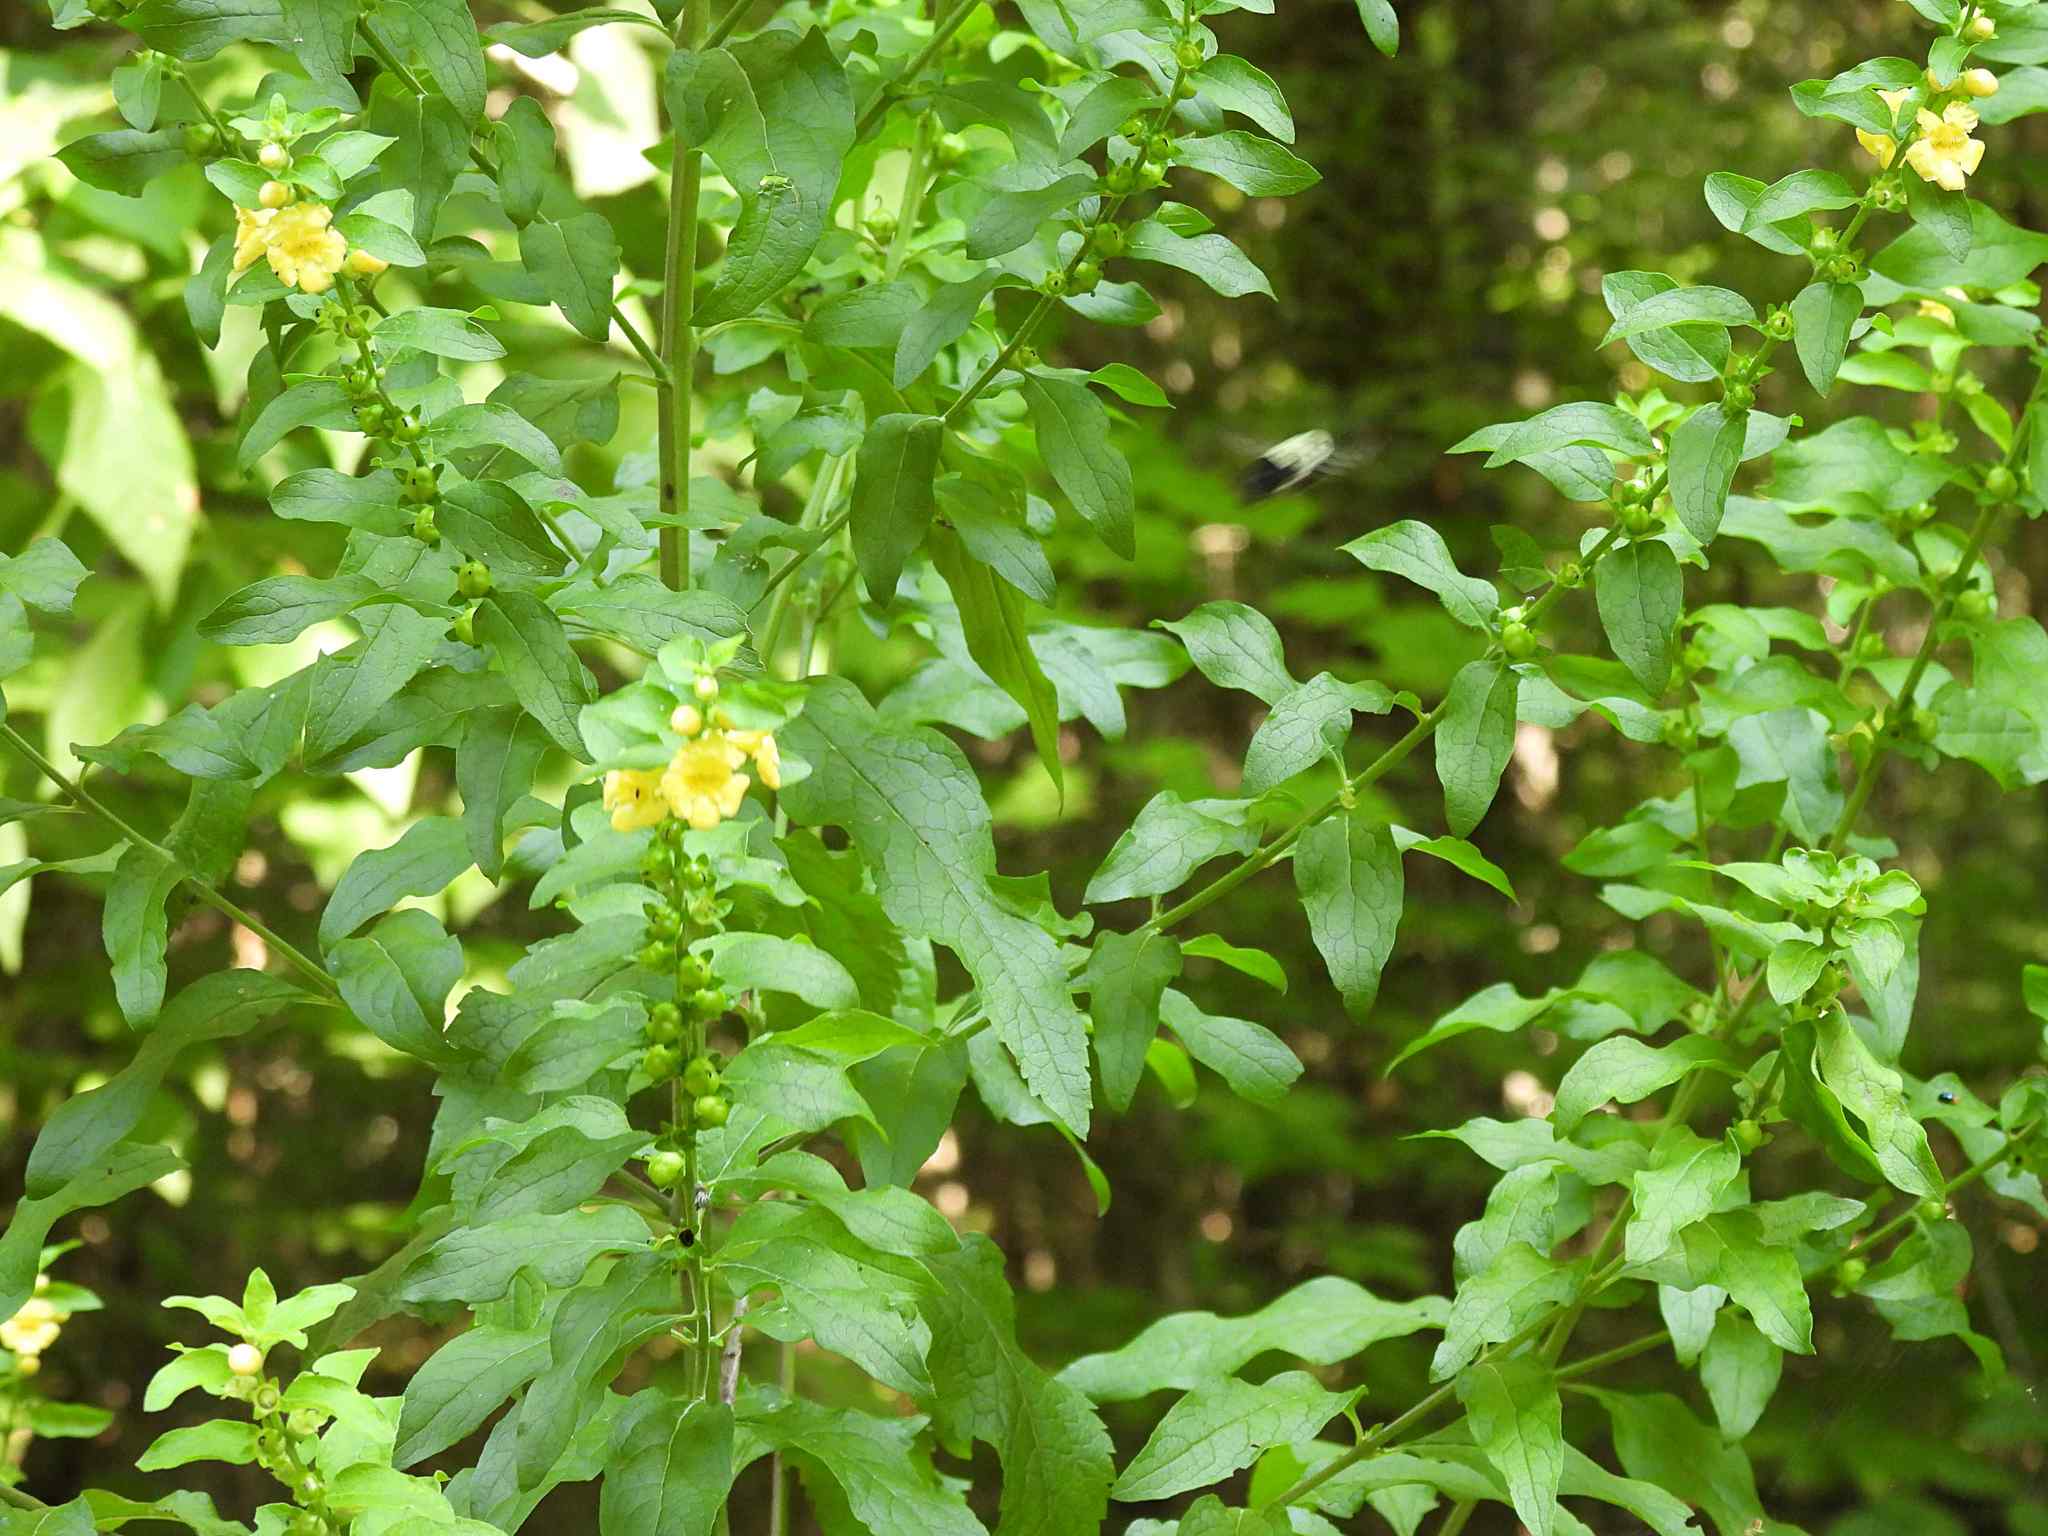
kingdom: Plantae
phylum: Tracheophyta
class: Magnoliopsida
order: Lamiales
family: Orobanchaceae
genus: Dasistoma
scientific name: Dasistoma macrophyllum
